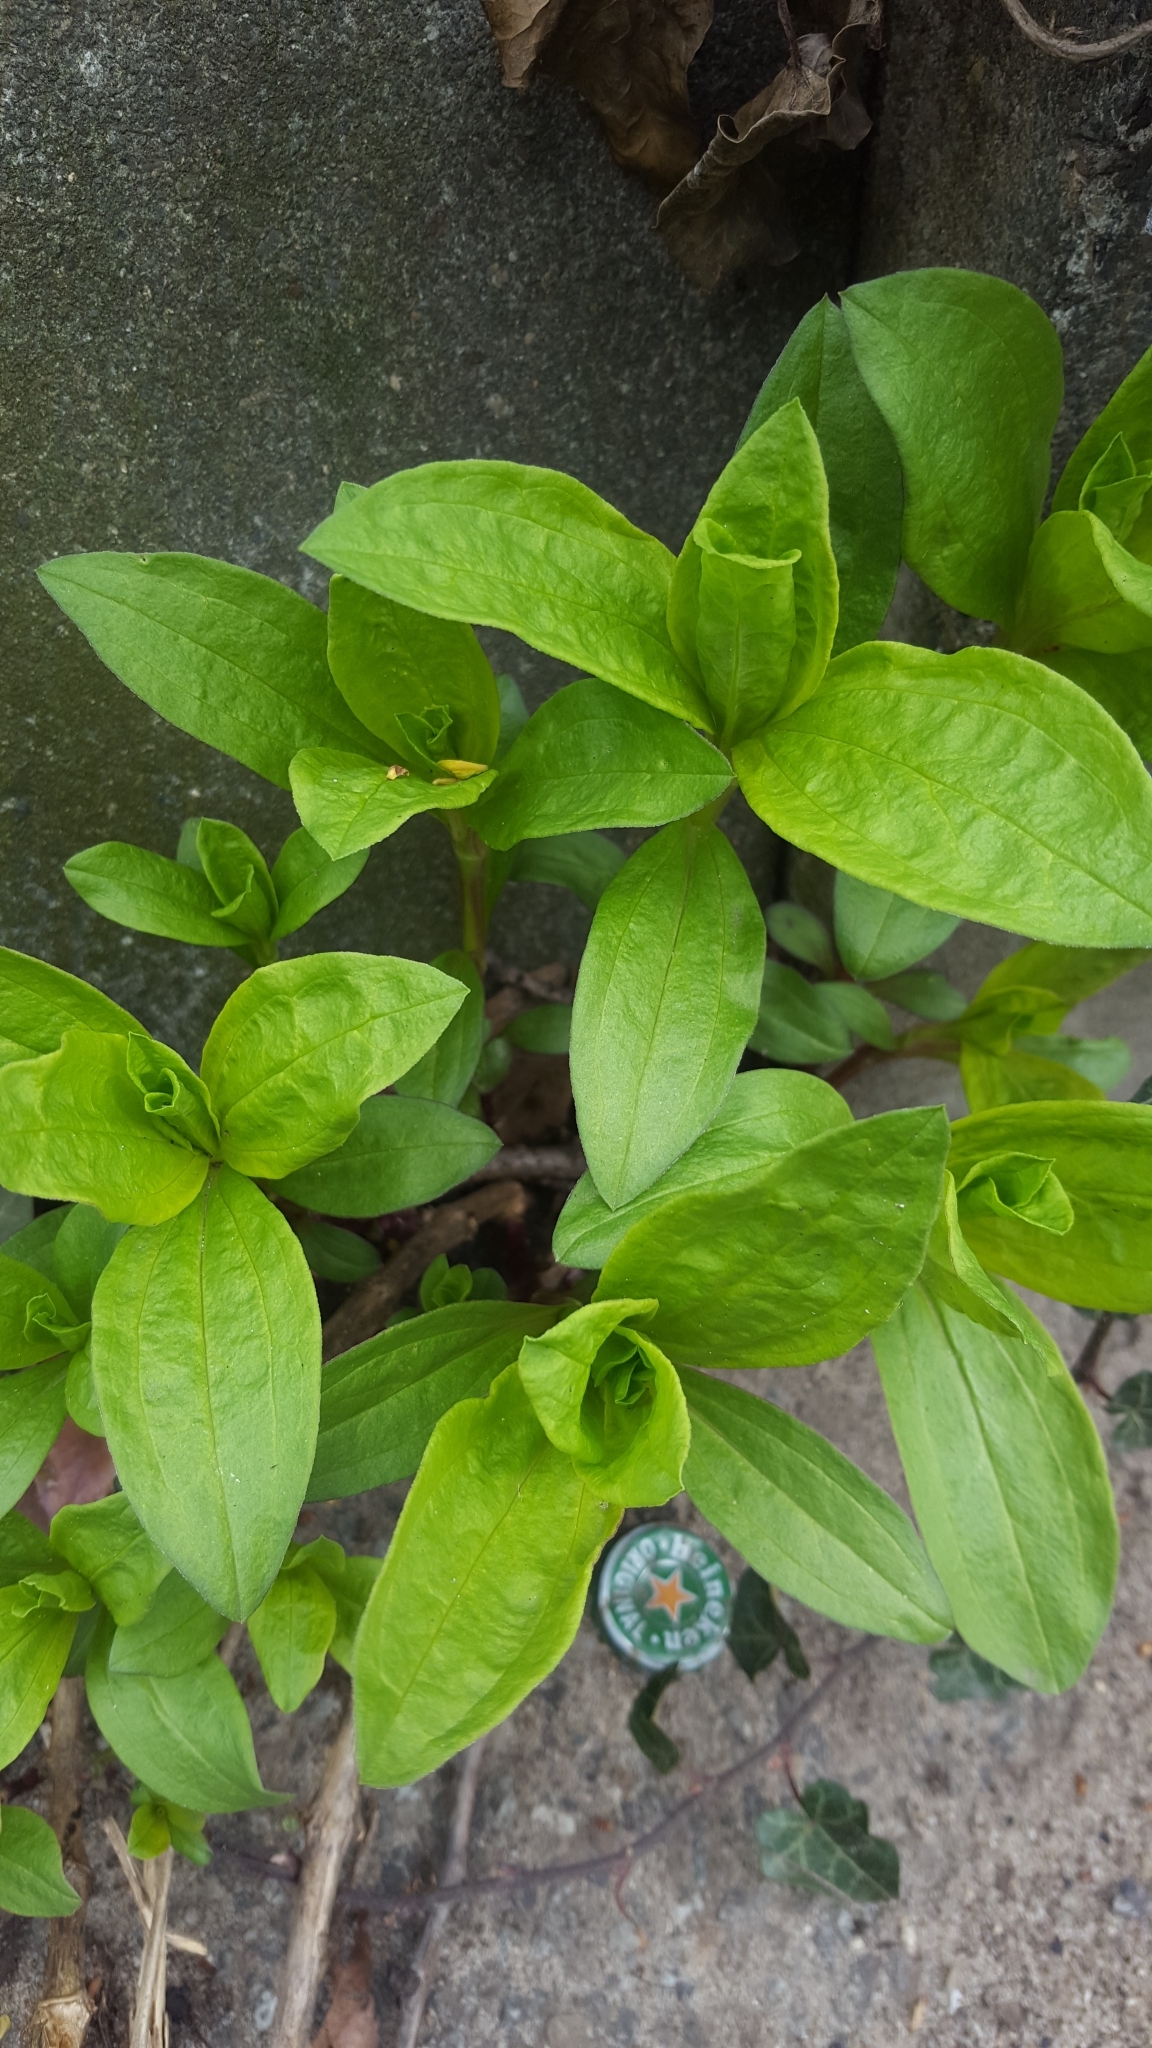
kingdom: Plantae
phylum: Tracheophyta
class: Magnoliopsida
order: Caryophyllales
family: Caryophyllaceae
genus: Saponaria
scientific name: Saponaria officinalis
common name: Soapwort
